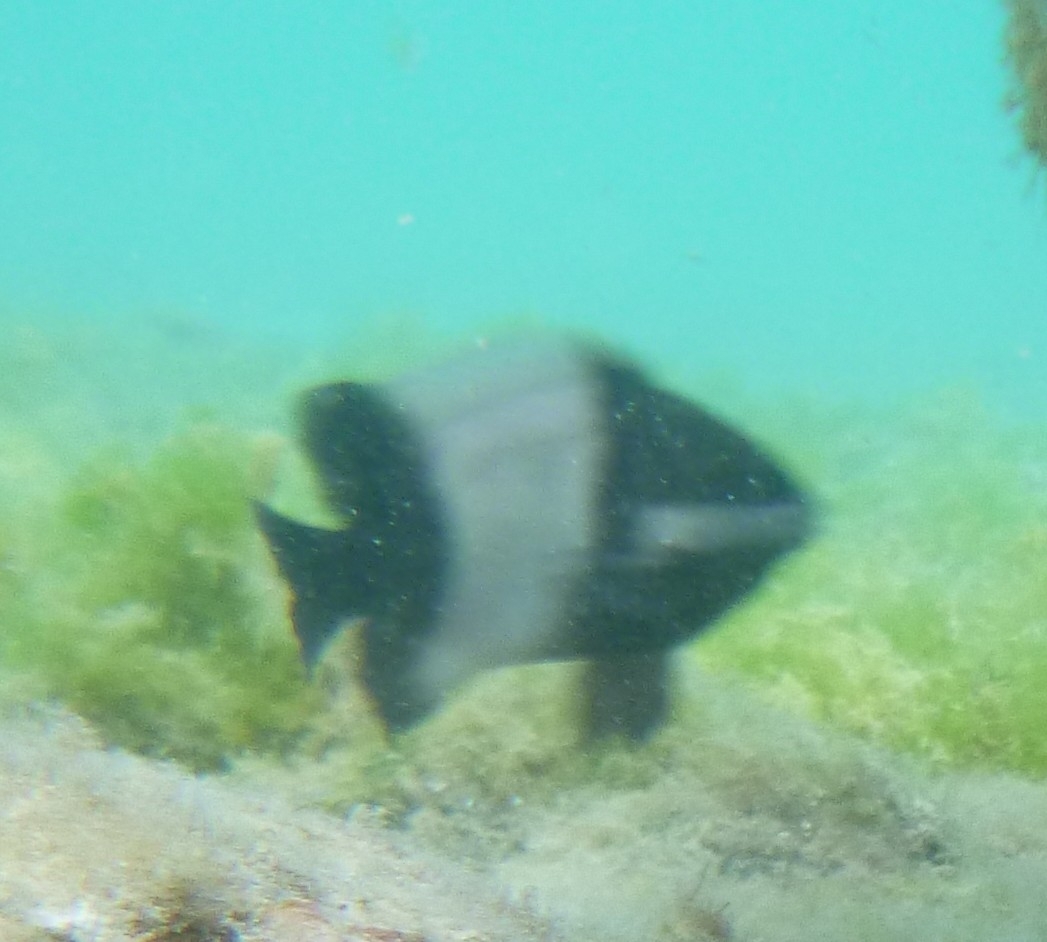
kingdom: Animalia
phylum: Chordata
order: Perciformes
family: Pomacentridae
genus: Stegastes
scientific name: Stegastes nigricans
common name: Dusky gregory
